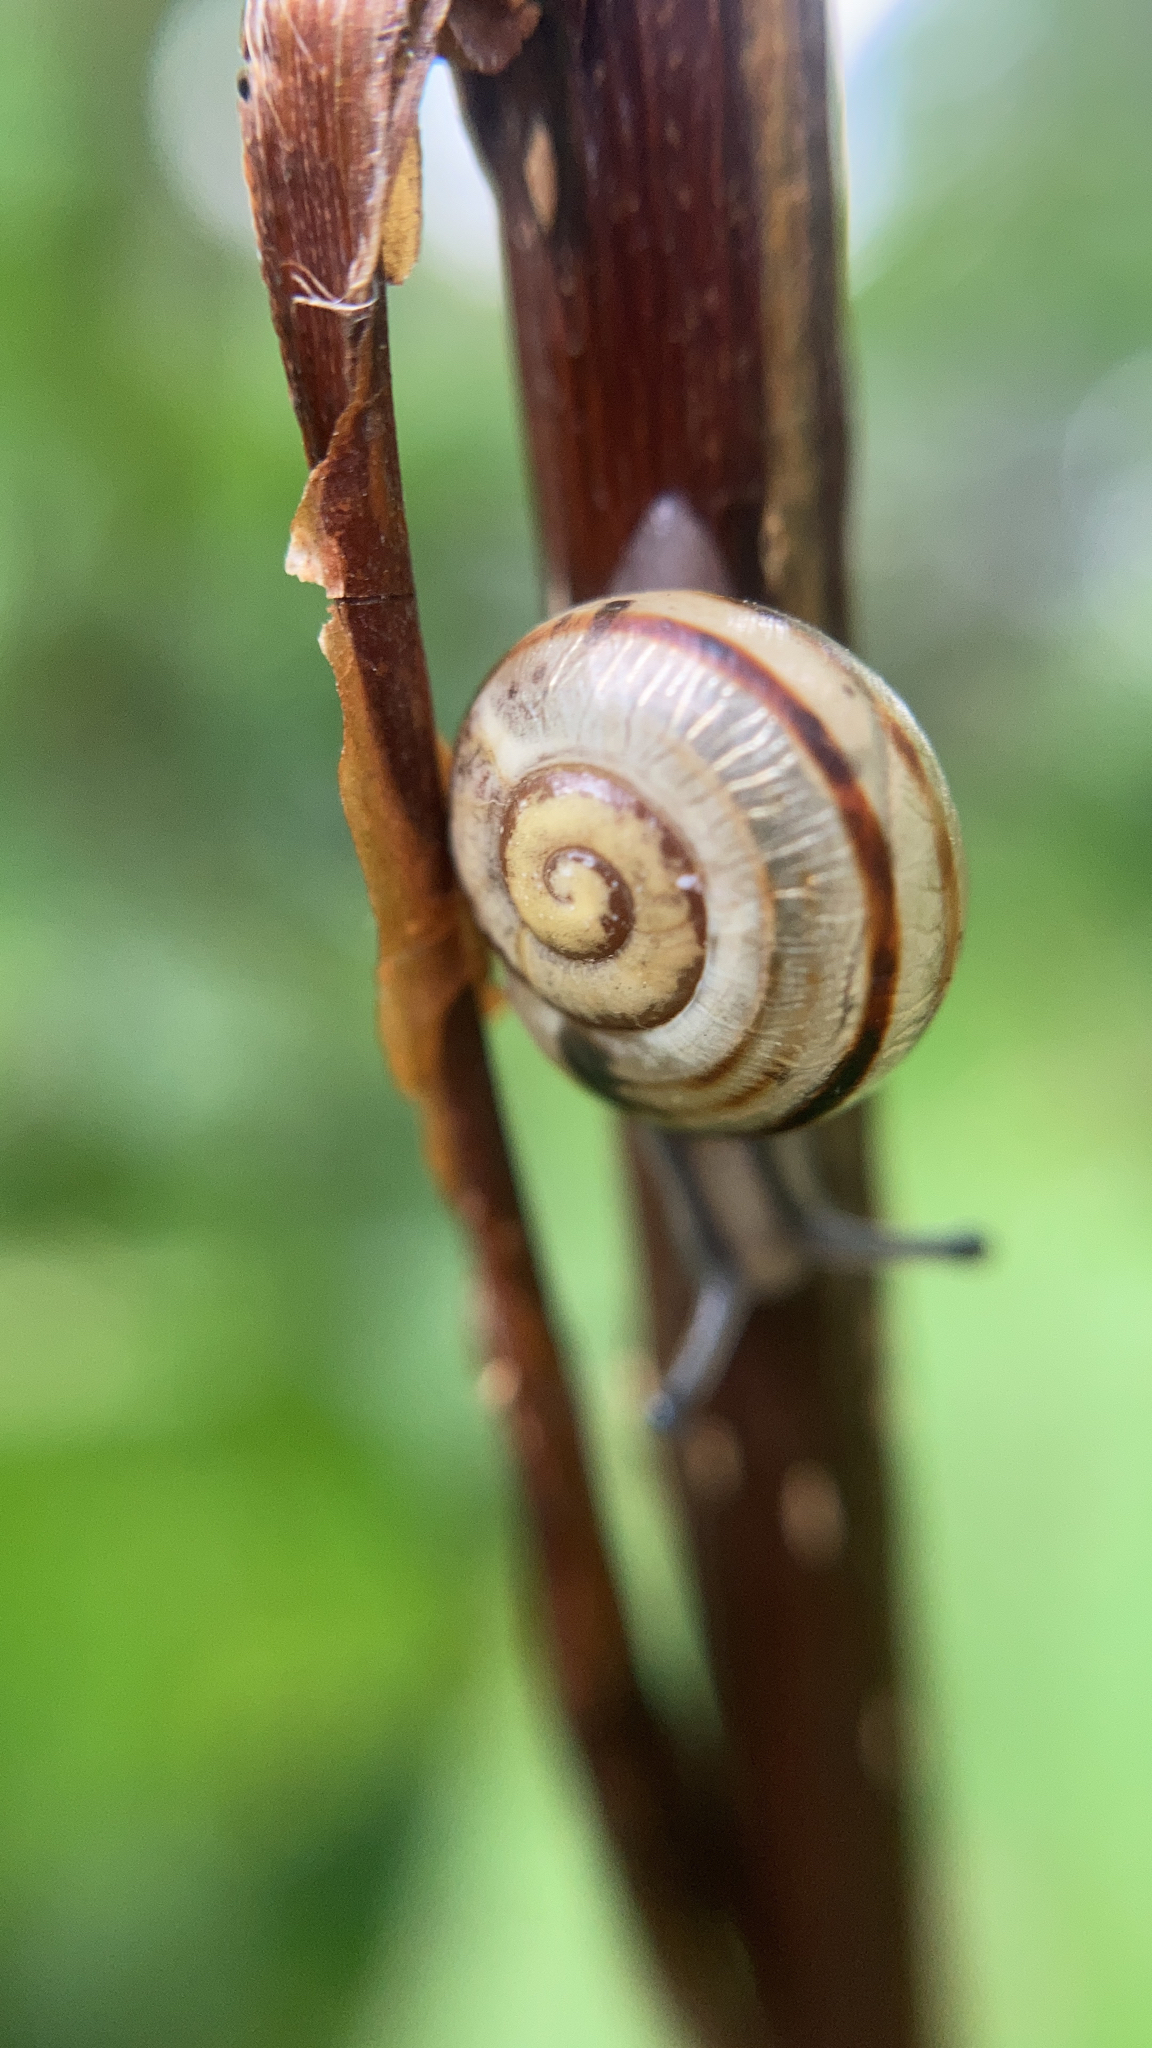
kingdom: Animalia
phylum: Mollusca
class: Gastropoda
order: Stylommatophora
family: Helicidae
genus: Cepaea
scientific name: Cepaea
